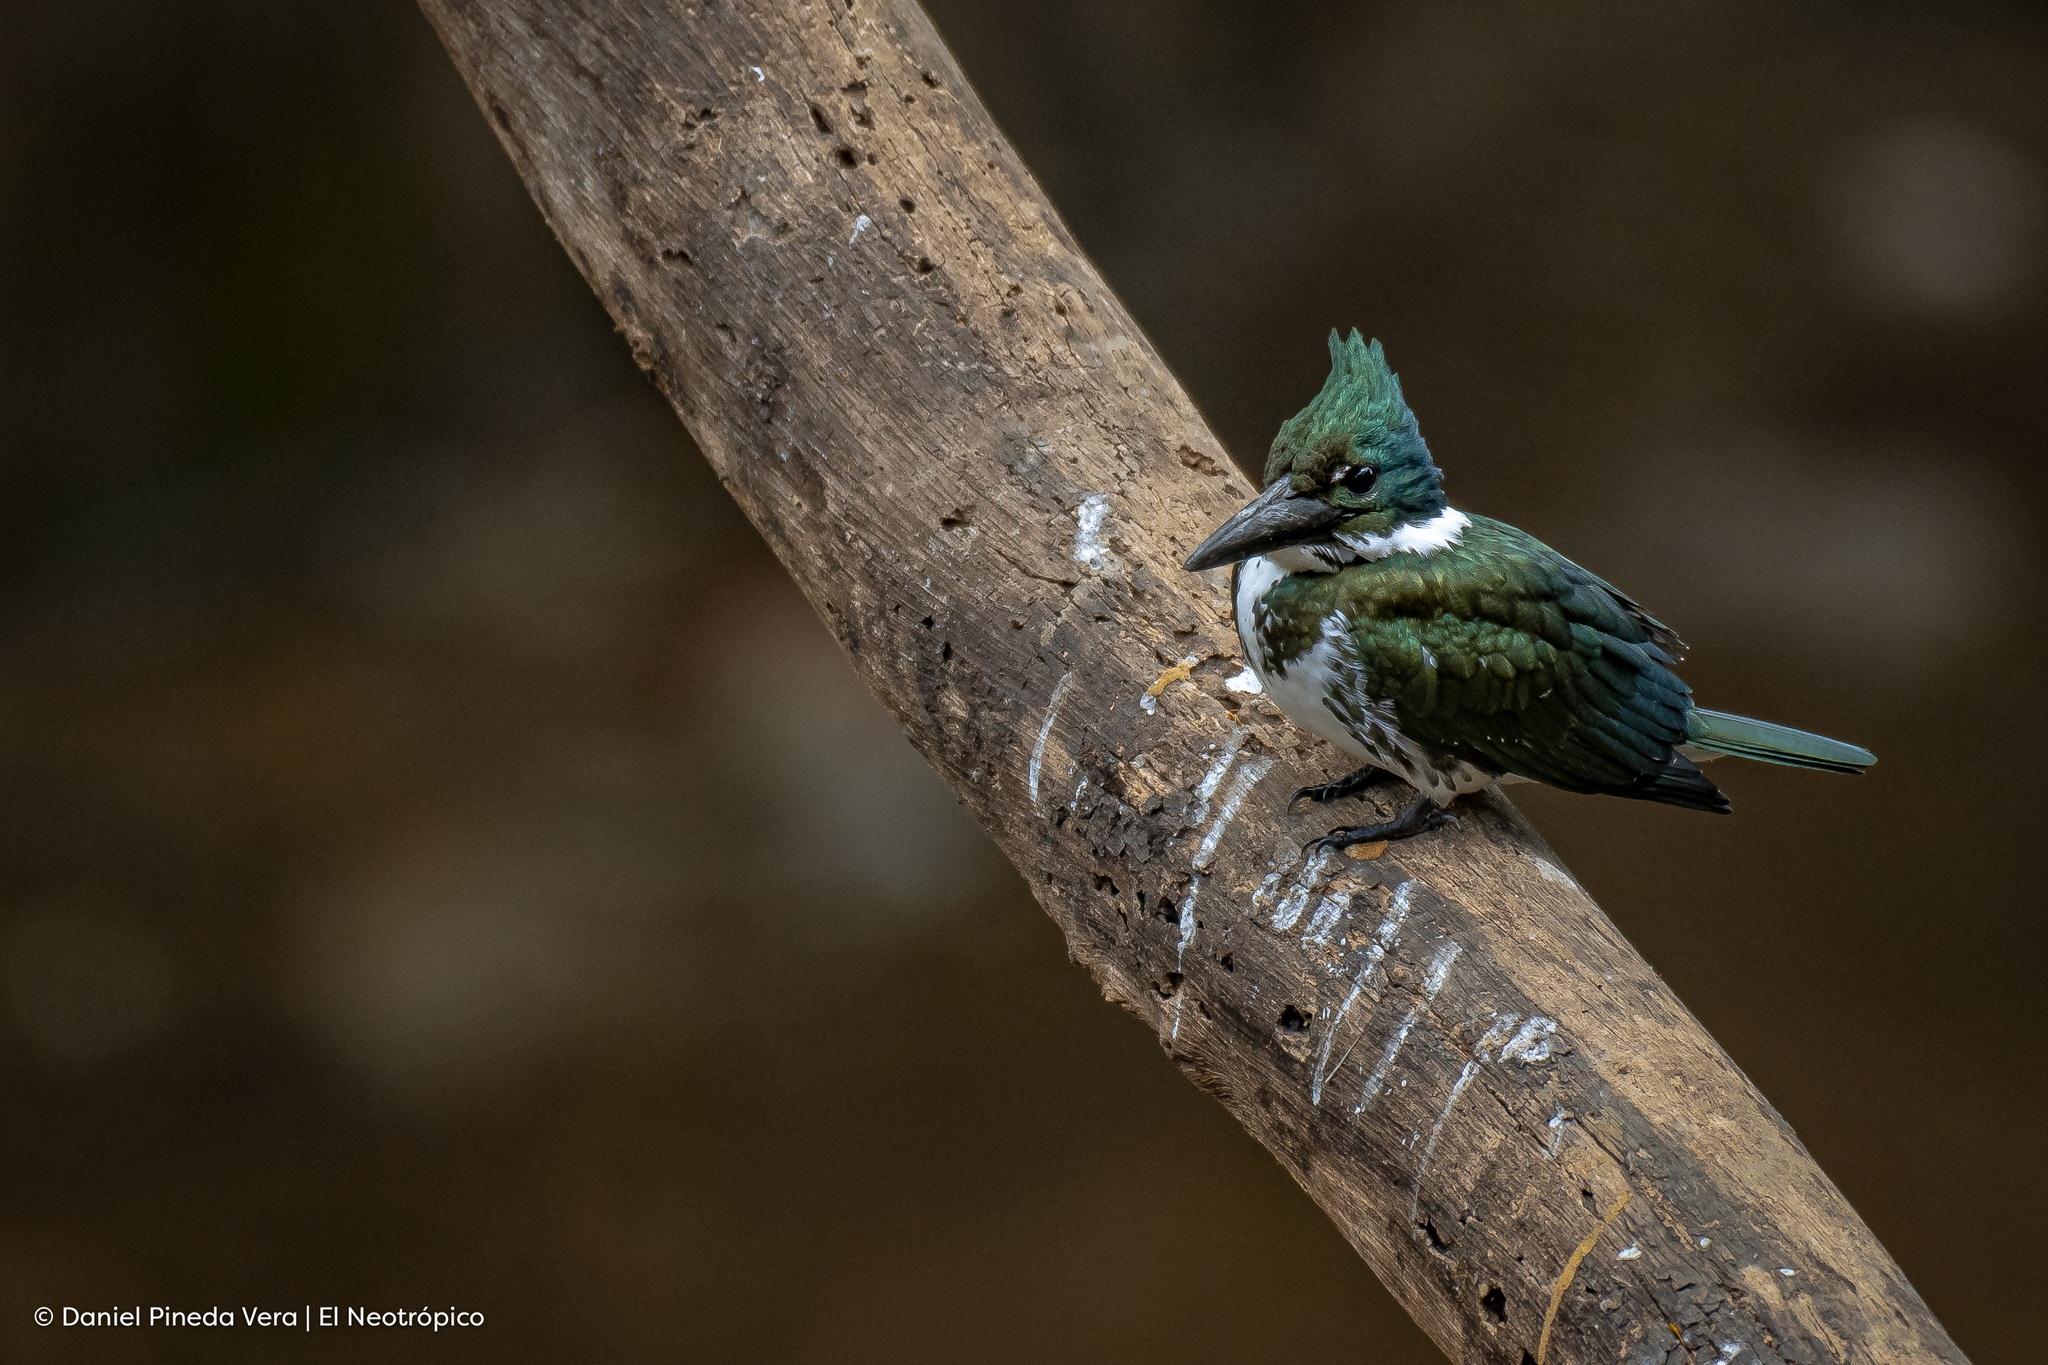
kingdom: Animalia
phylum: Chordata
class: Aves
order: Coraciiformes
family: Alcedinidae
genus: Chloroceryle
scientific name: Chloroceryle amazona
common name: Amazon kingfisher
